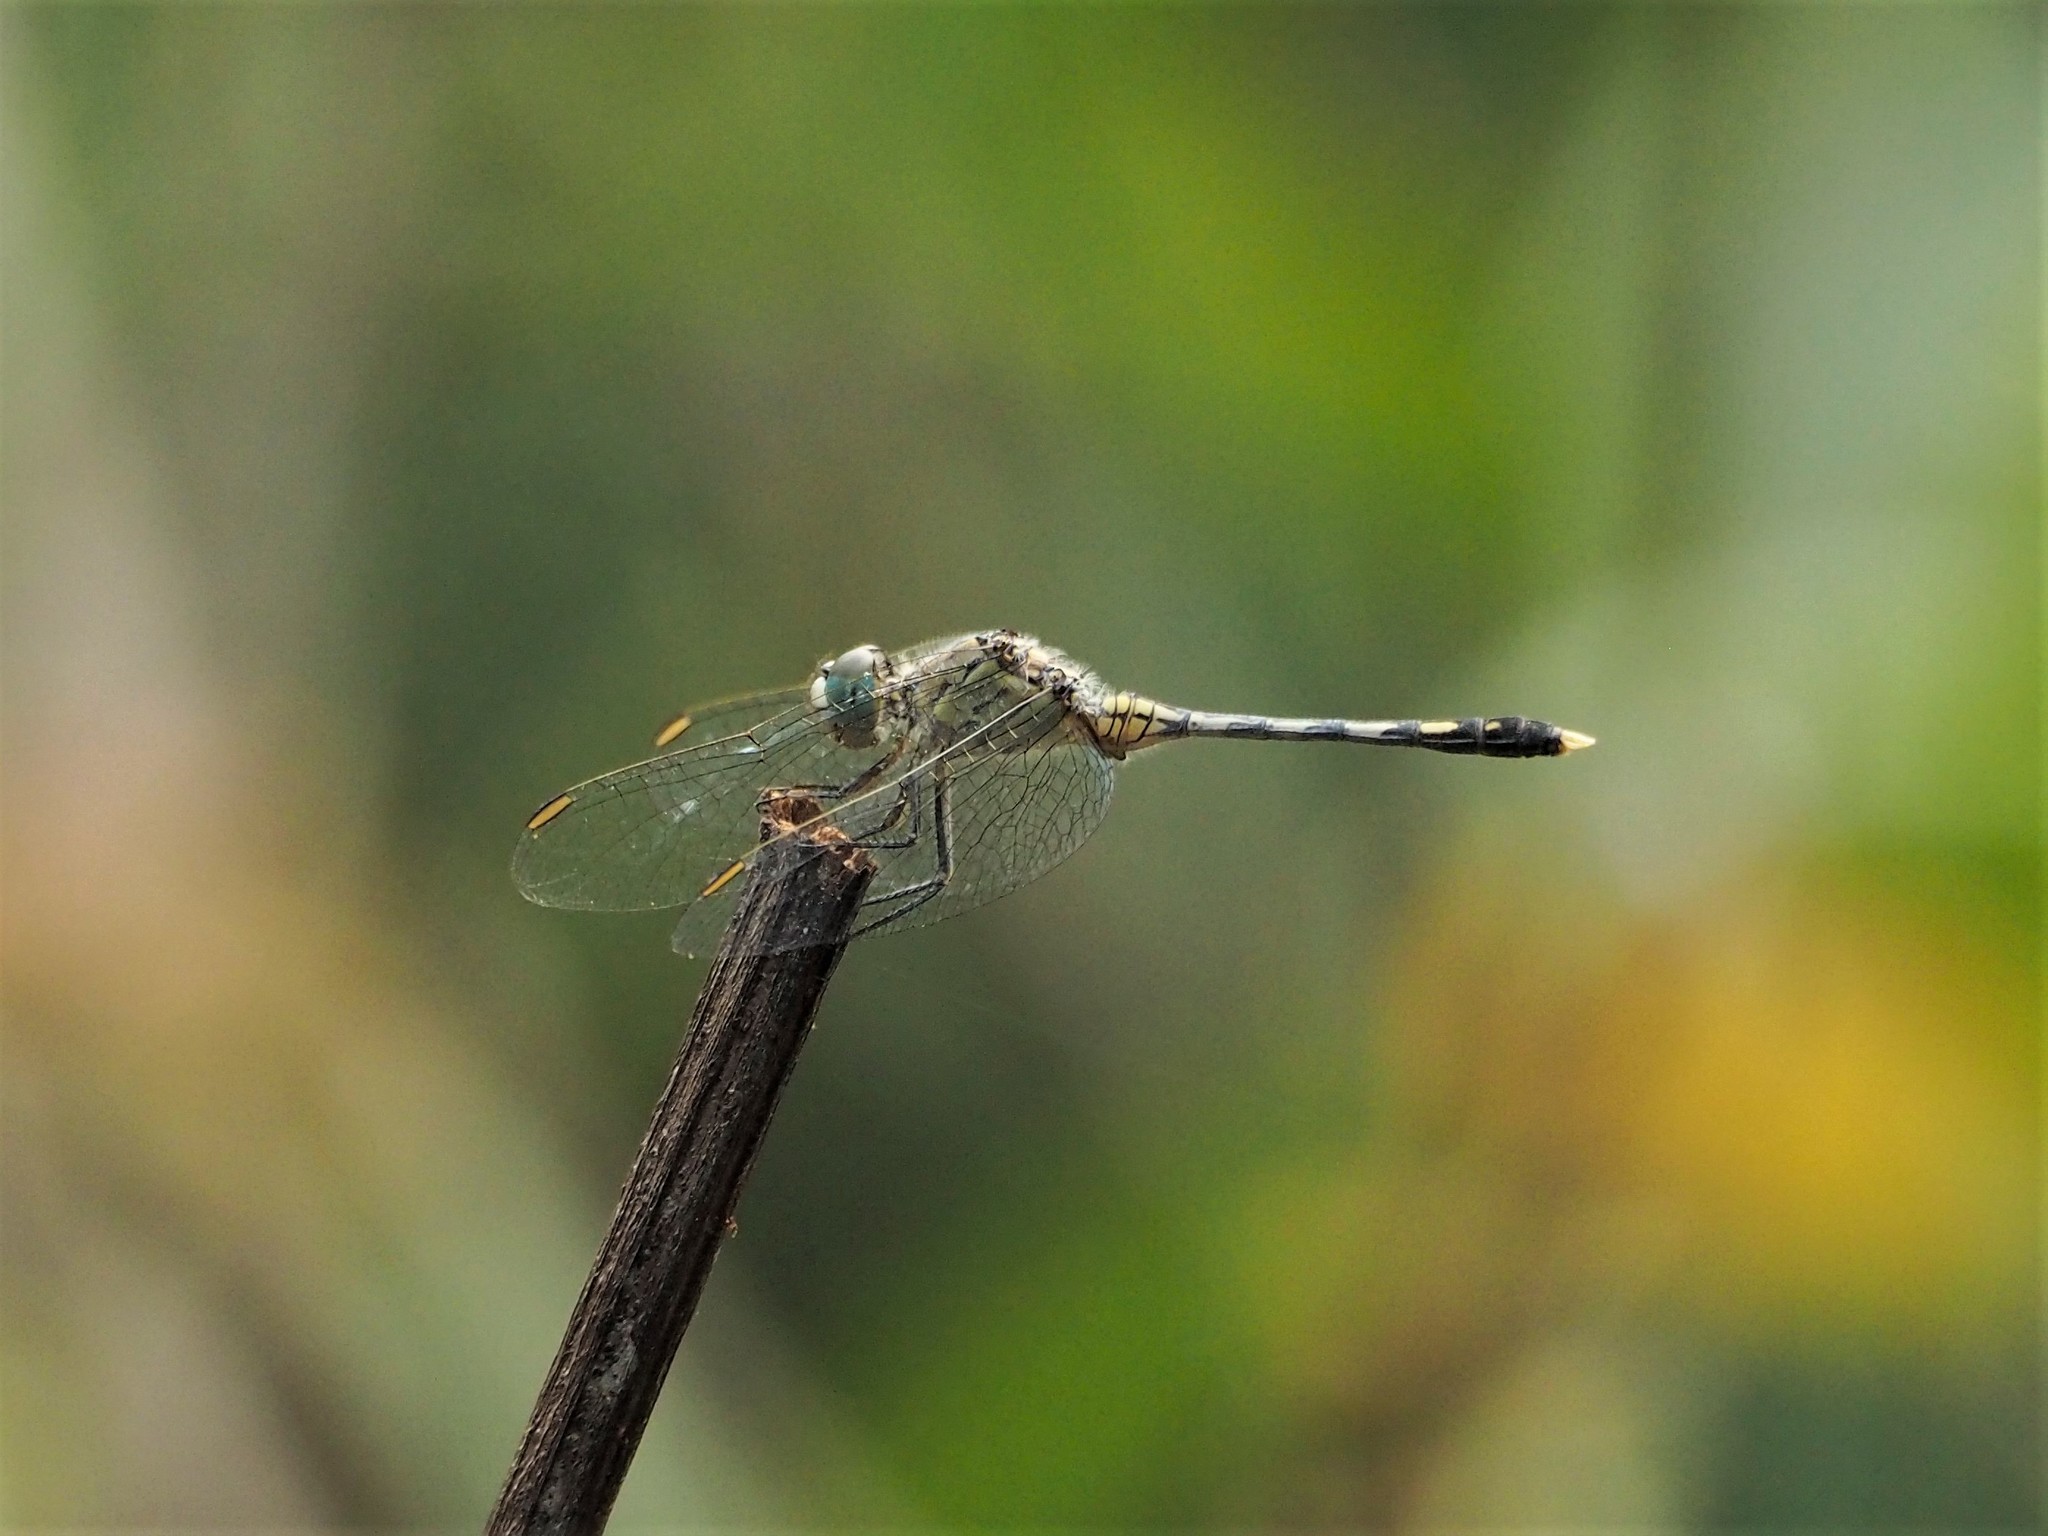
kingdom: Animalia
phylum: Arthropoda
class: Insecta
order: Odonata
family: Libellulidae
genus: Diplacodes
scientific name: Diplacodes trivialis
